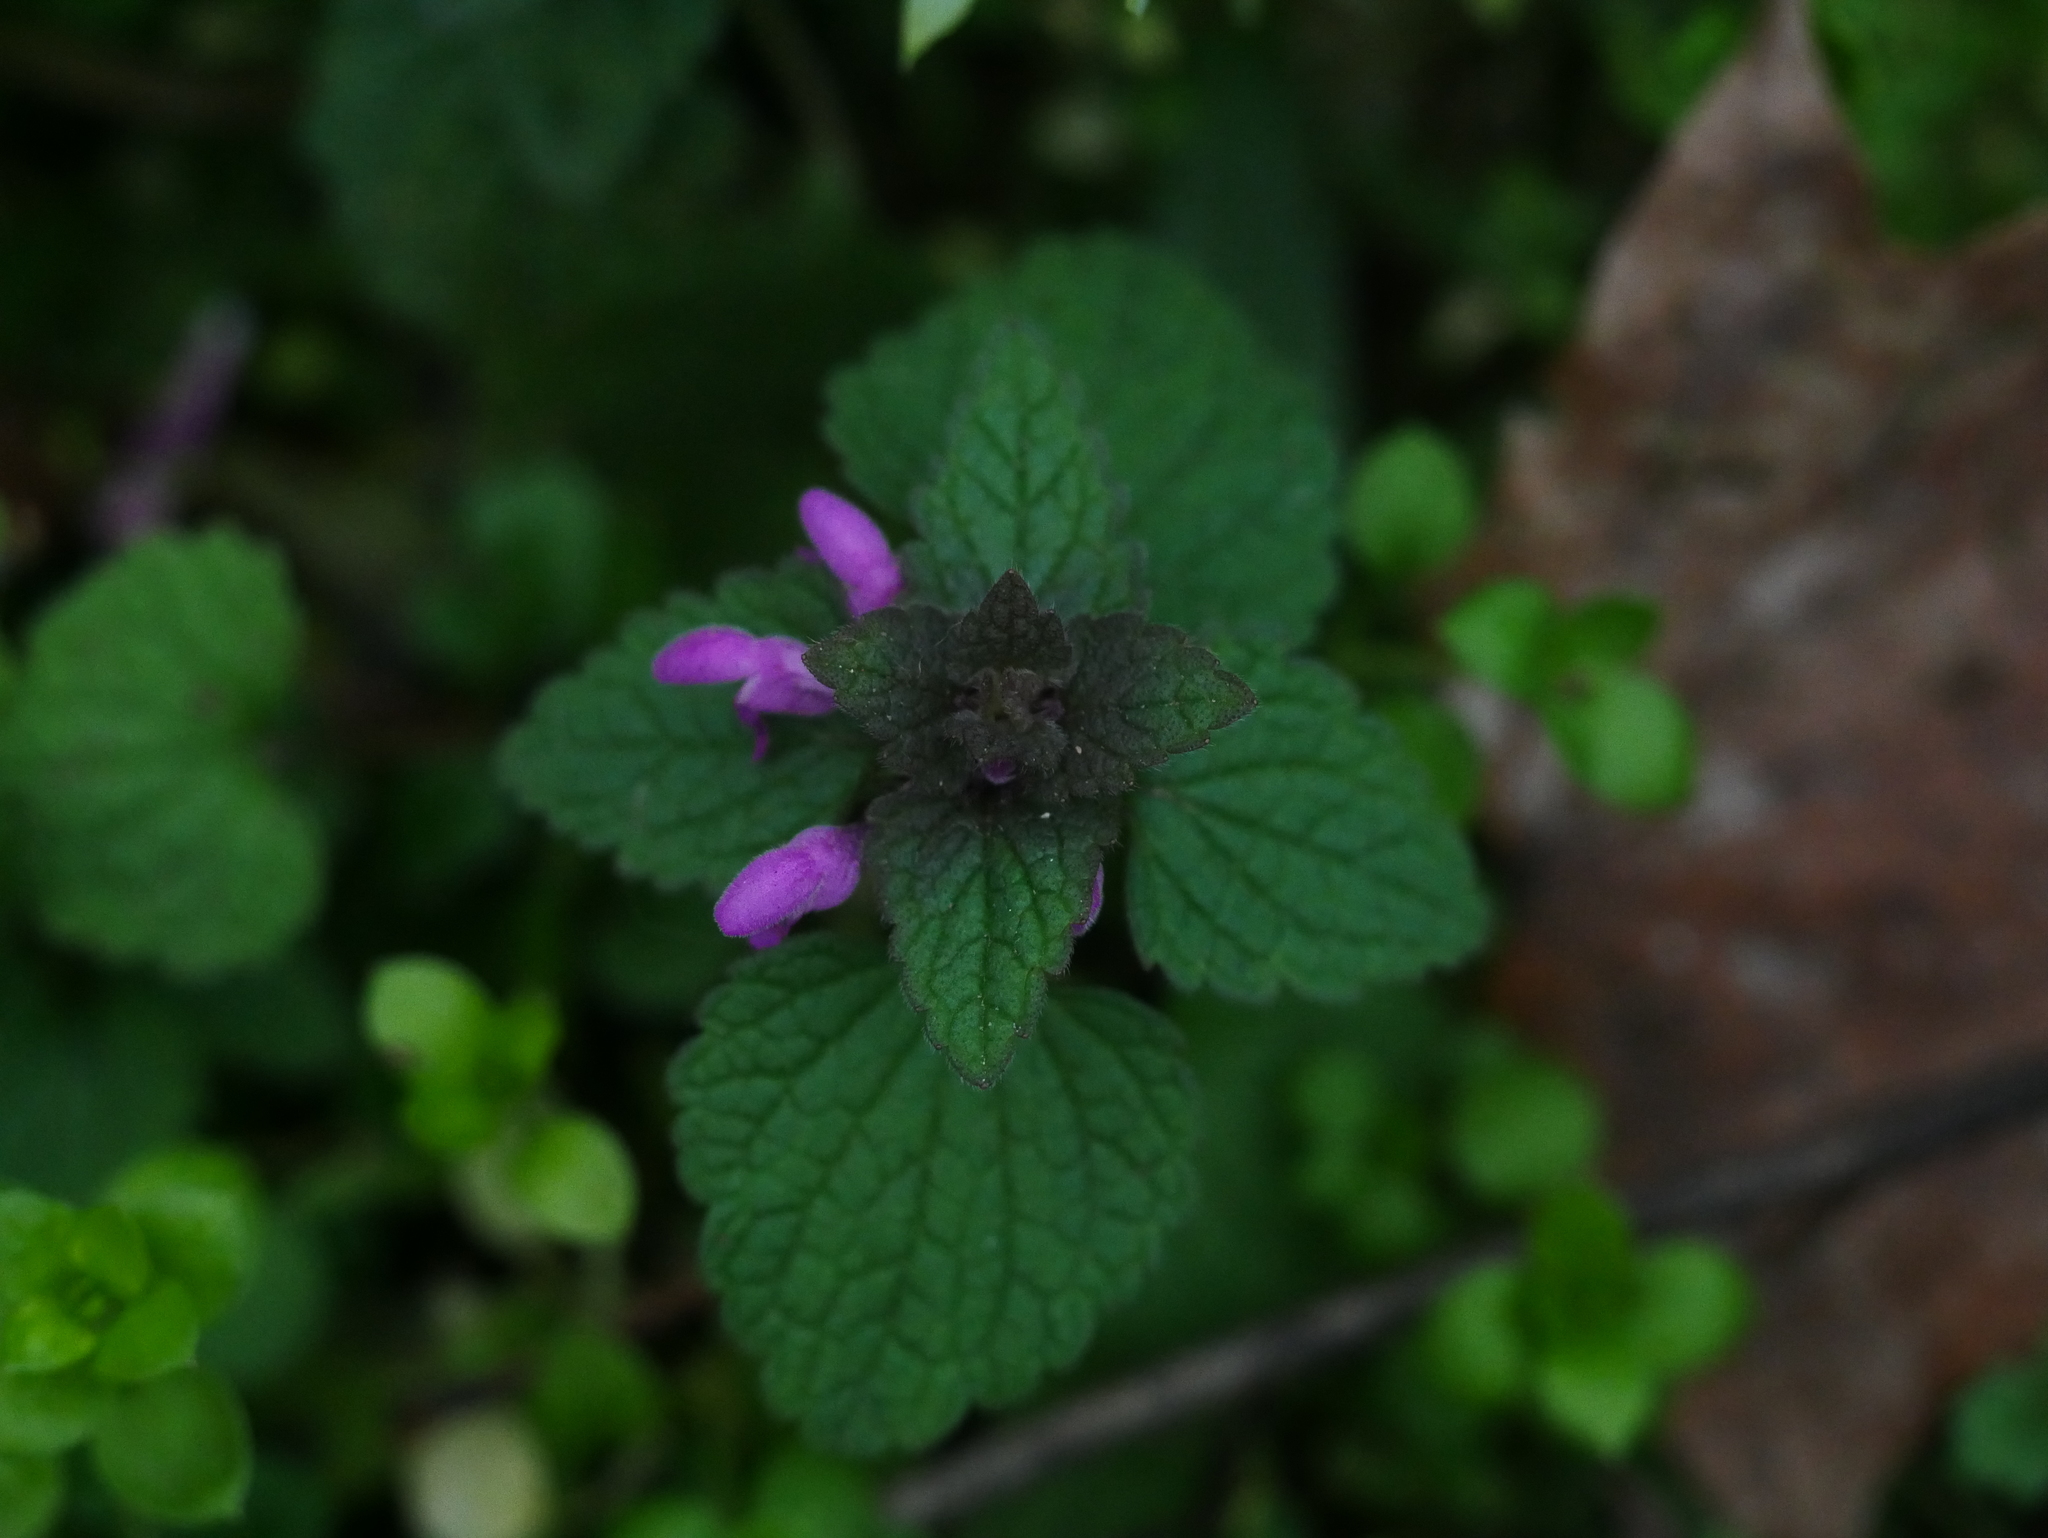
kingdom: Plantae
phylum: Tracheophyta
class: Magnoliopsida
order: Lamiales
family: Lamiaceae
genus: Lamium
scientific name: Lamium purpureum
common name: Red dead-nettle
